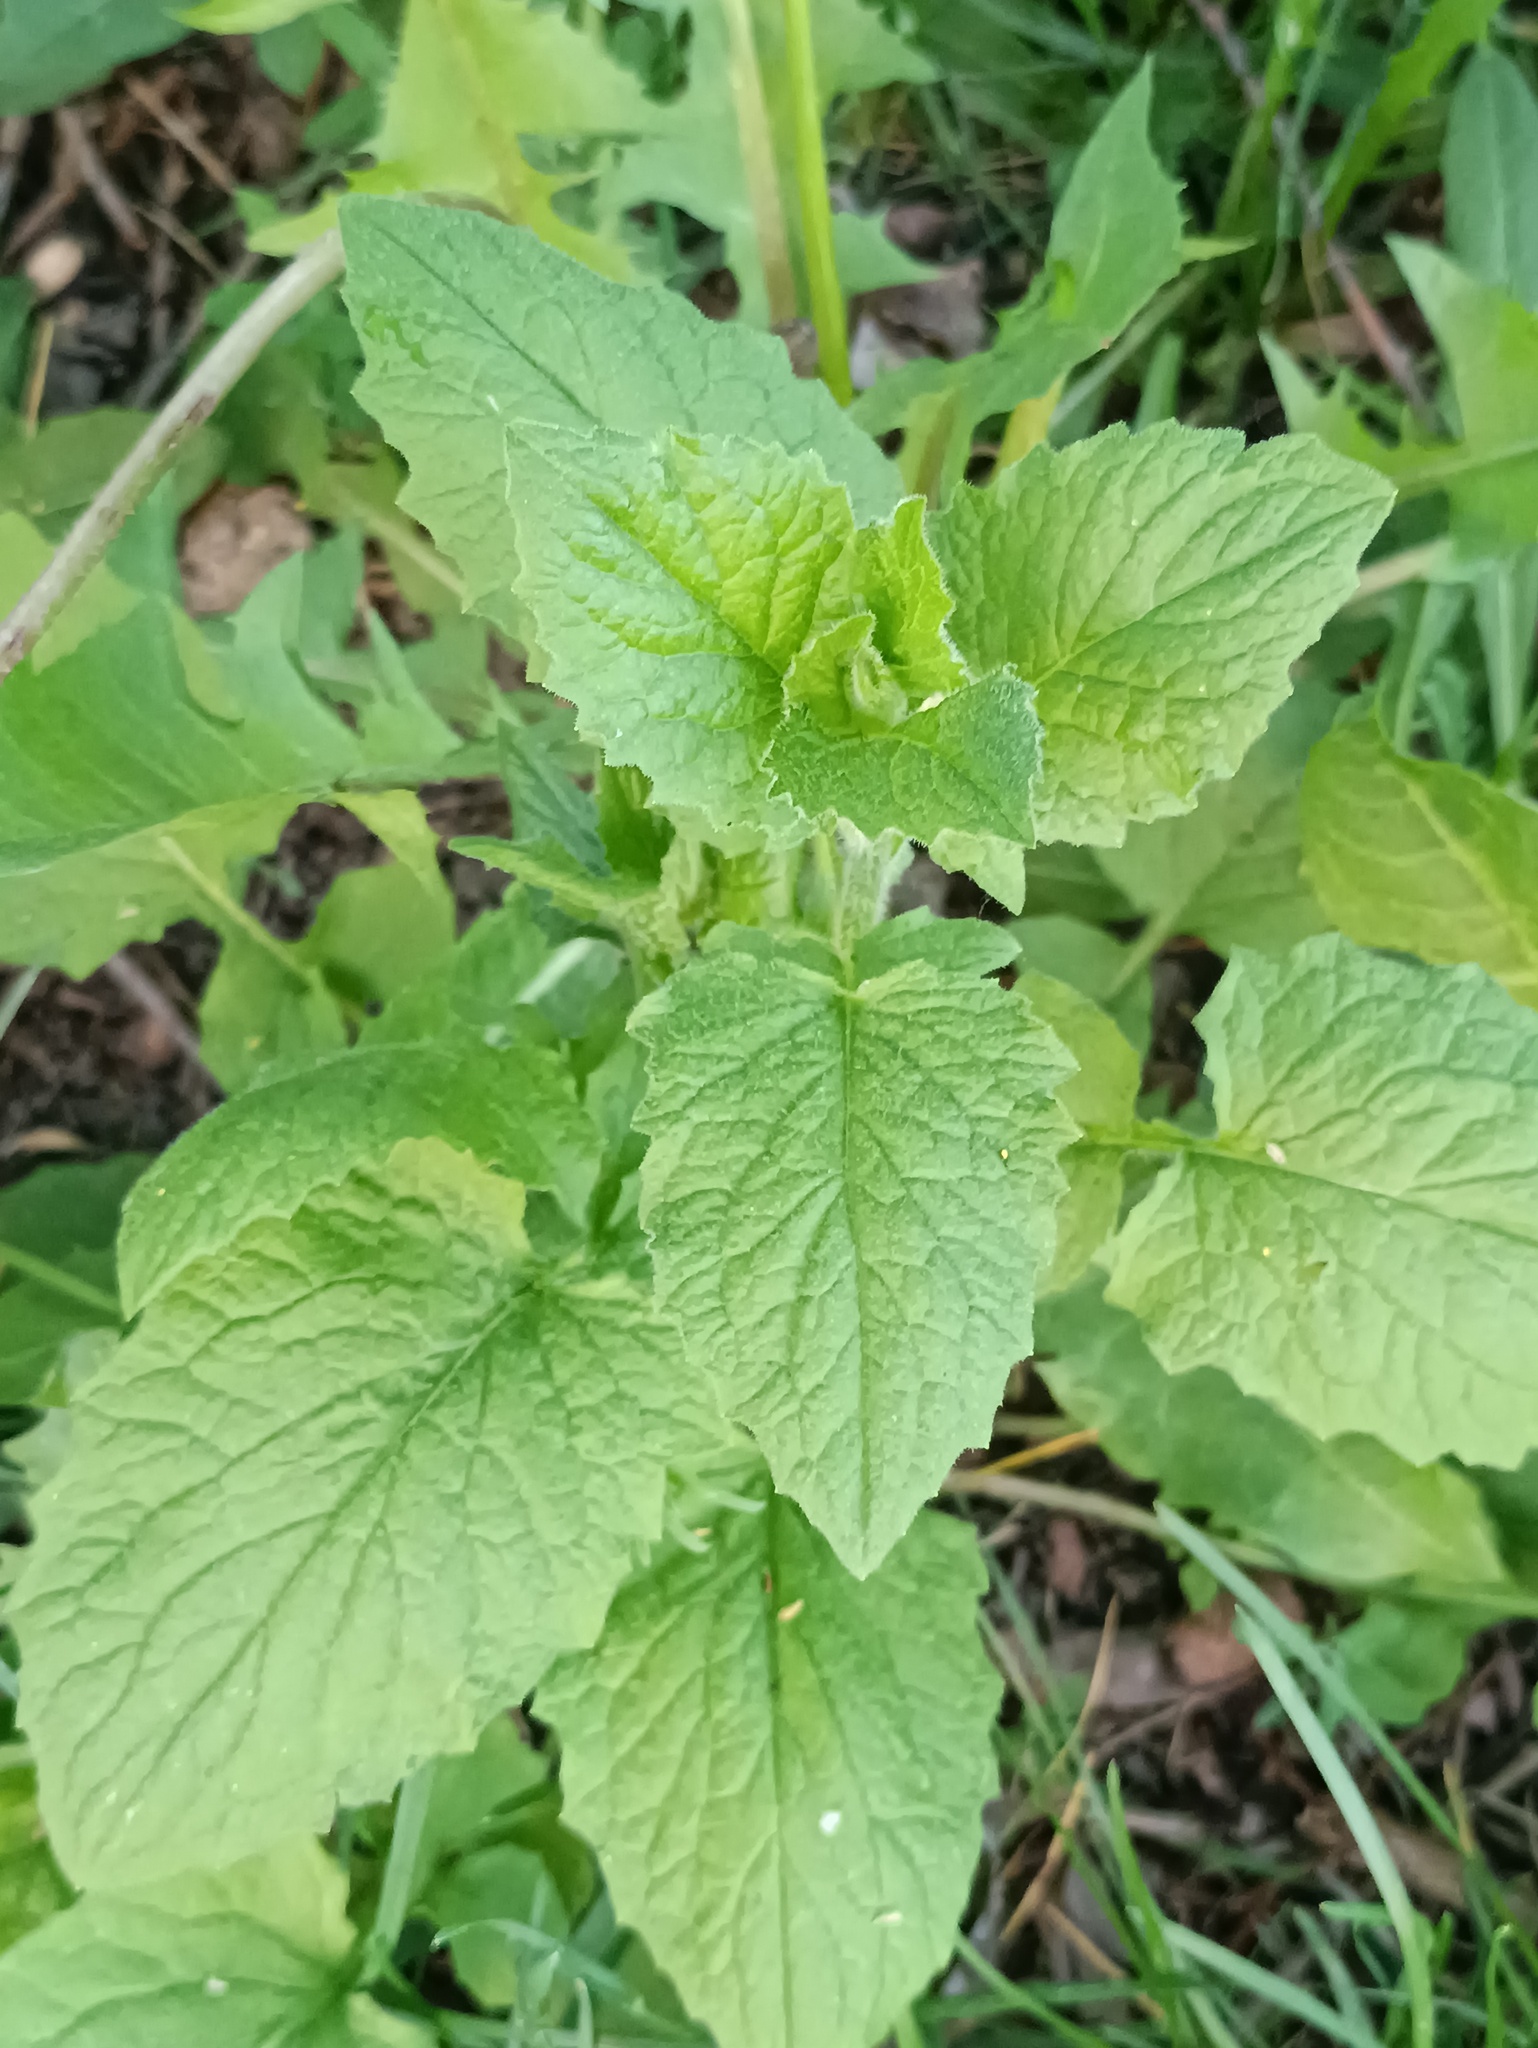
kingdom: Plantae
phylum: Tracheophyta
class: Magnoliopsida
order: Asterales
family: Asteraceae
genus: Lapsana
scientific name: Lapsana communis
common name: Nipplewort
